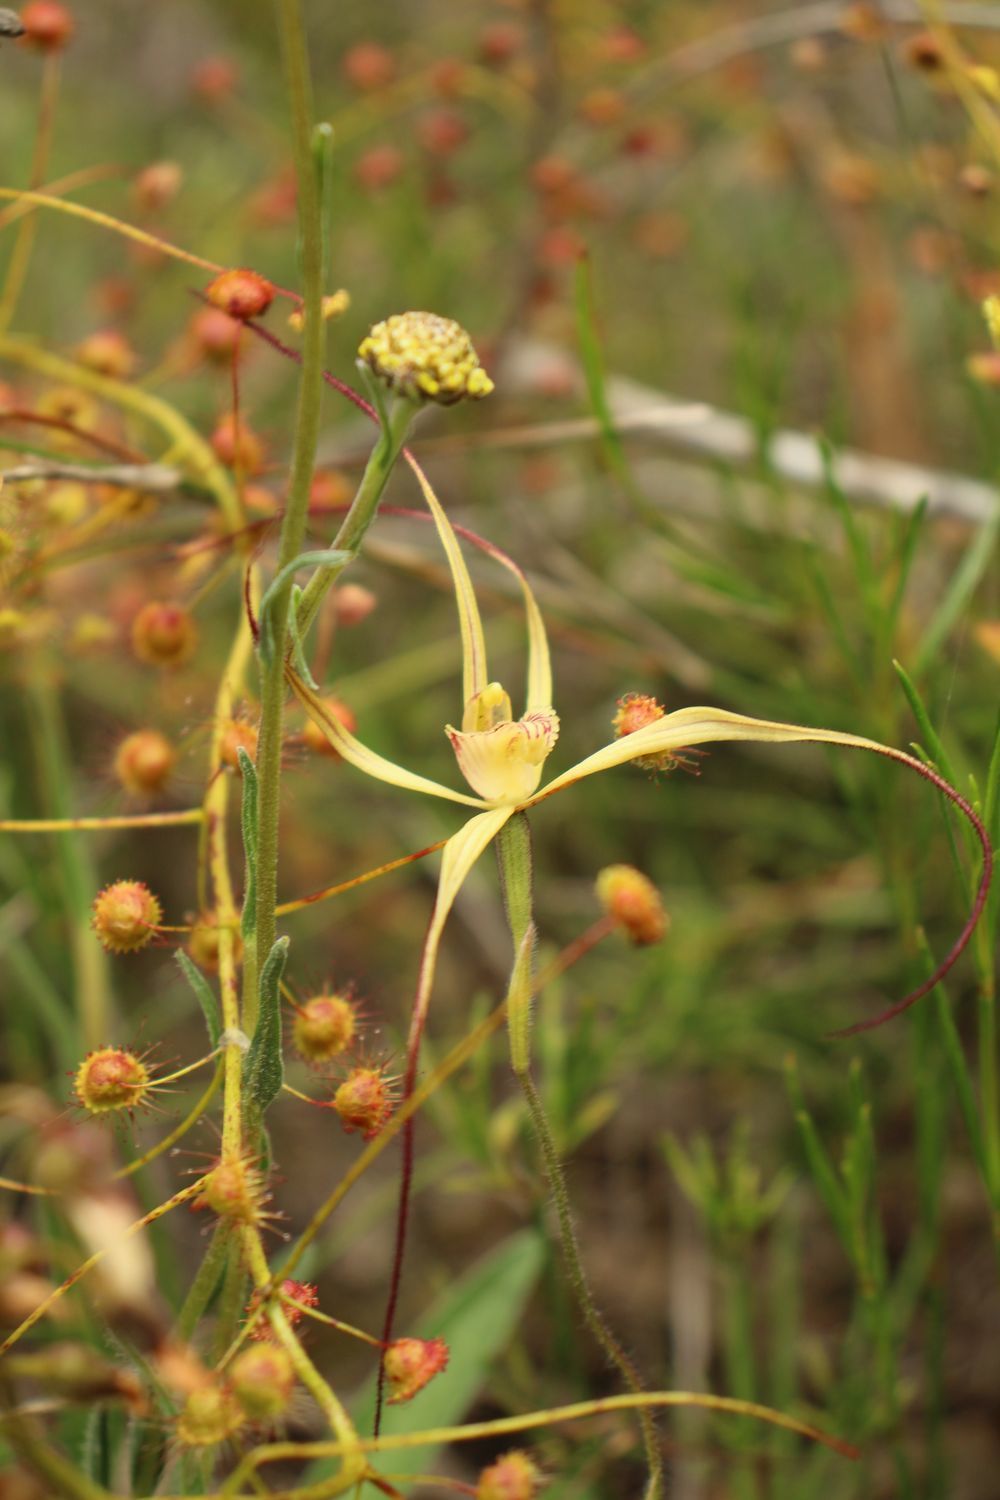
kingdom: Plantae
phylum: Tracheophyta
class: Liliopsida
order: Asparagales
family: Orchidaceae
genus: Caladenia
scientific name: Caladenia straminichila
